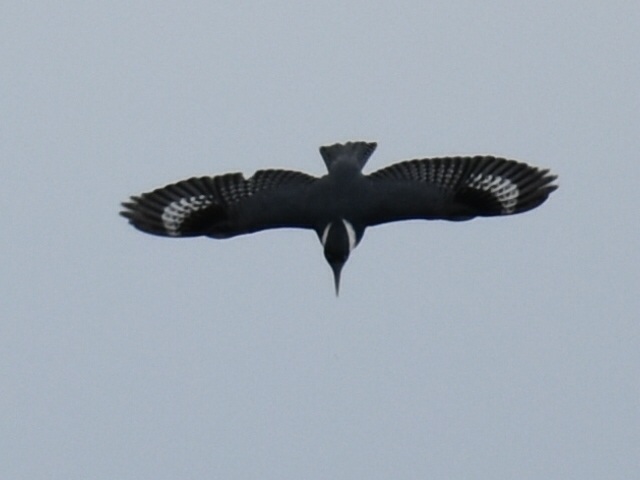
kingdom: Animalia
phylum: Chordata
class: Aves
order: Coraciiformes
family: Alcedinidae
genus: Megaceryle
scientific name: Megaceryle alcyon
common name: Belted kingfisher
